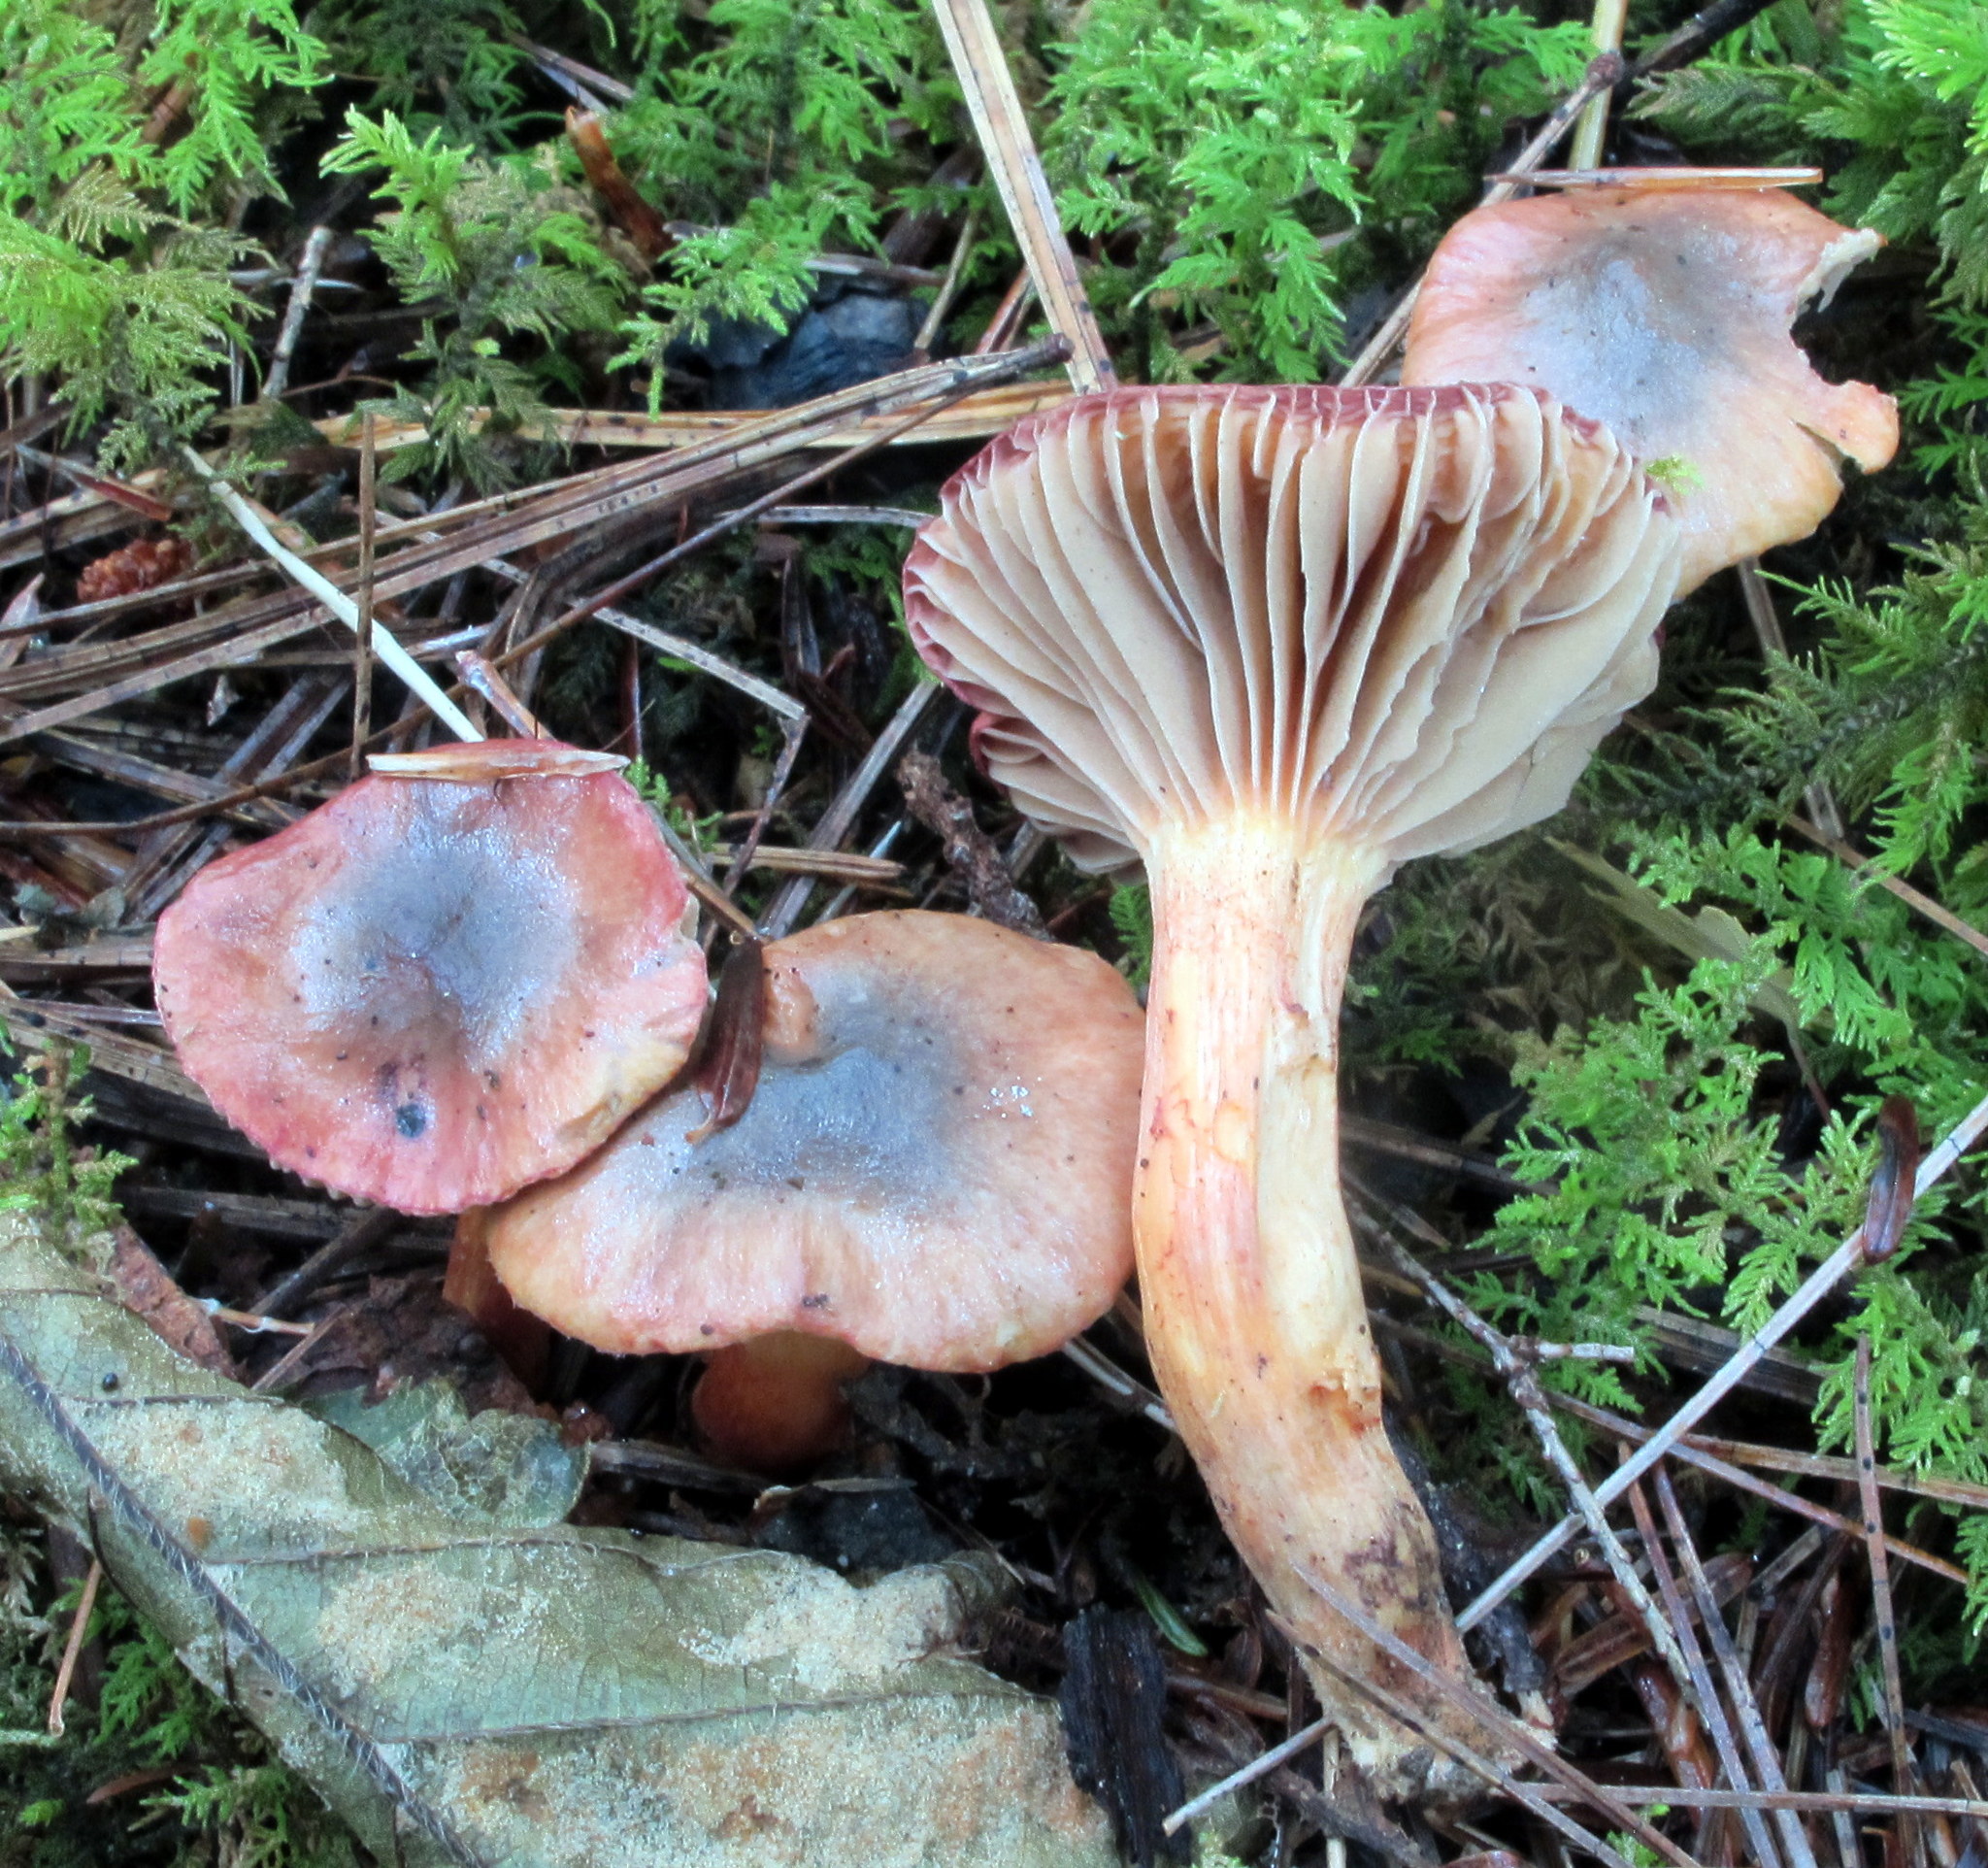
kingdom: Fungi
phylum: Basidiomycota
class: Agaricomycetes
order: Boletales
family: Gomphidiaceae
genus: Chroogomphus
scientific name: Chroogomphus ochraceus
